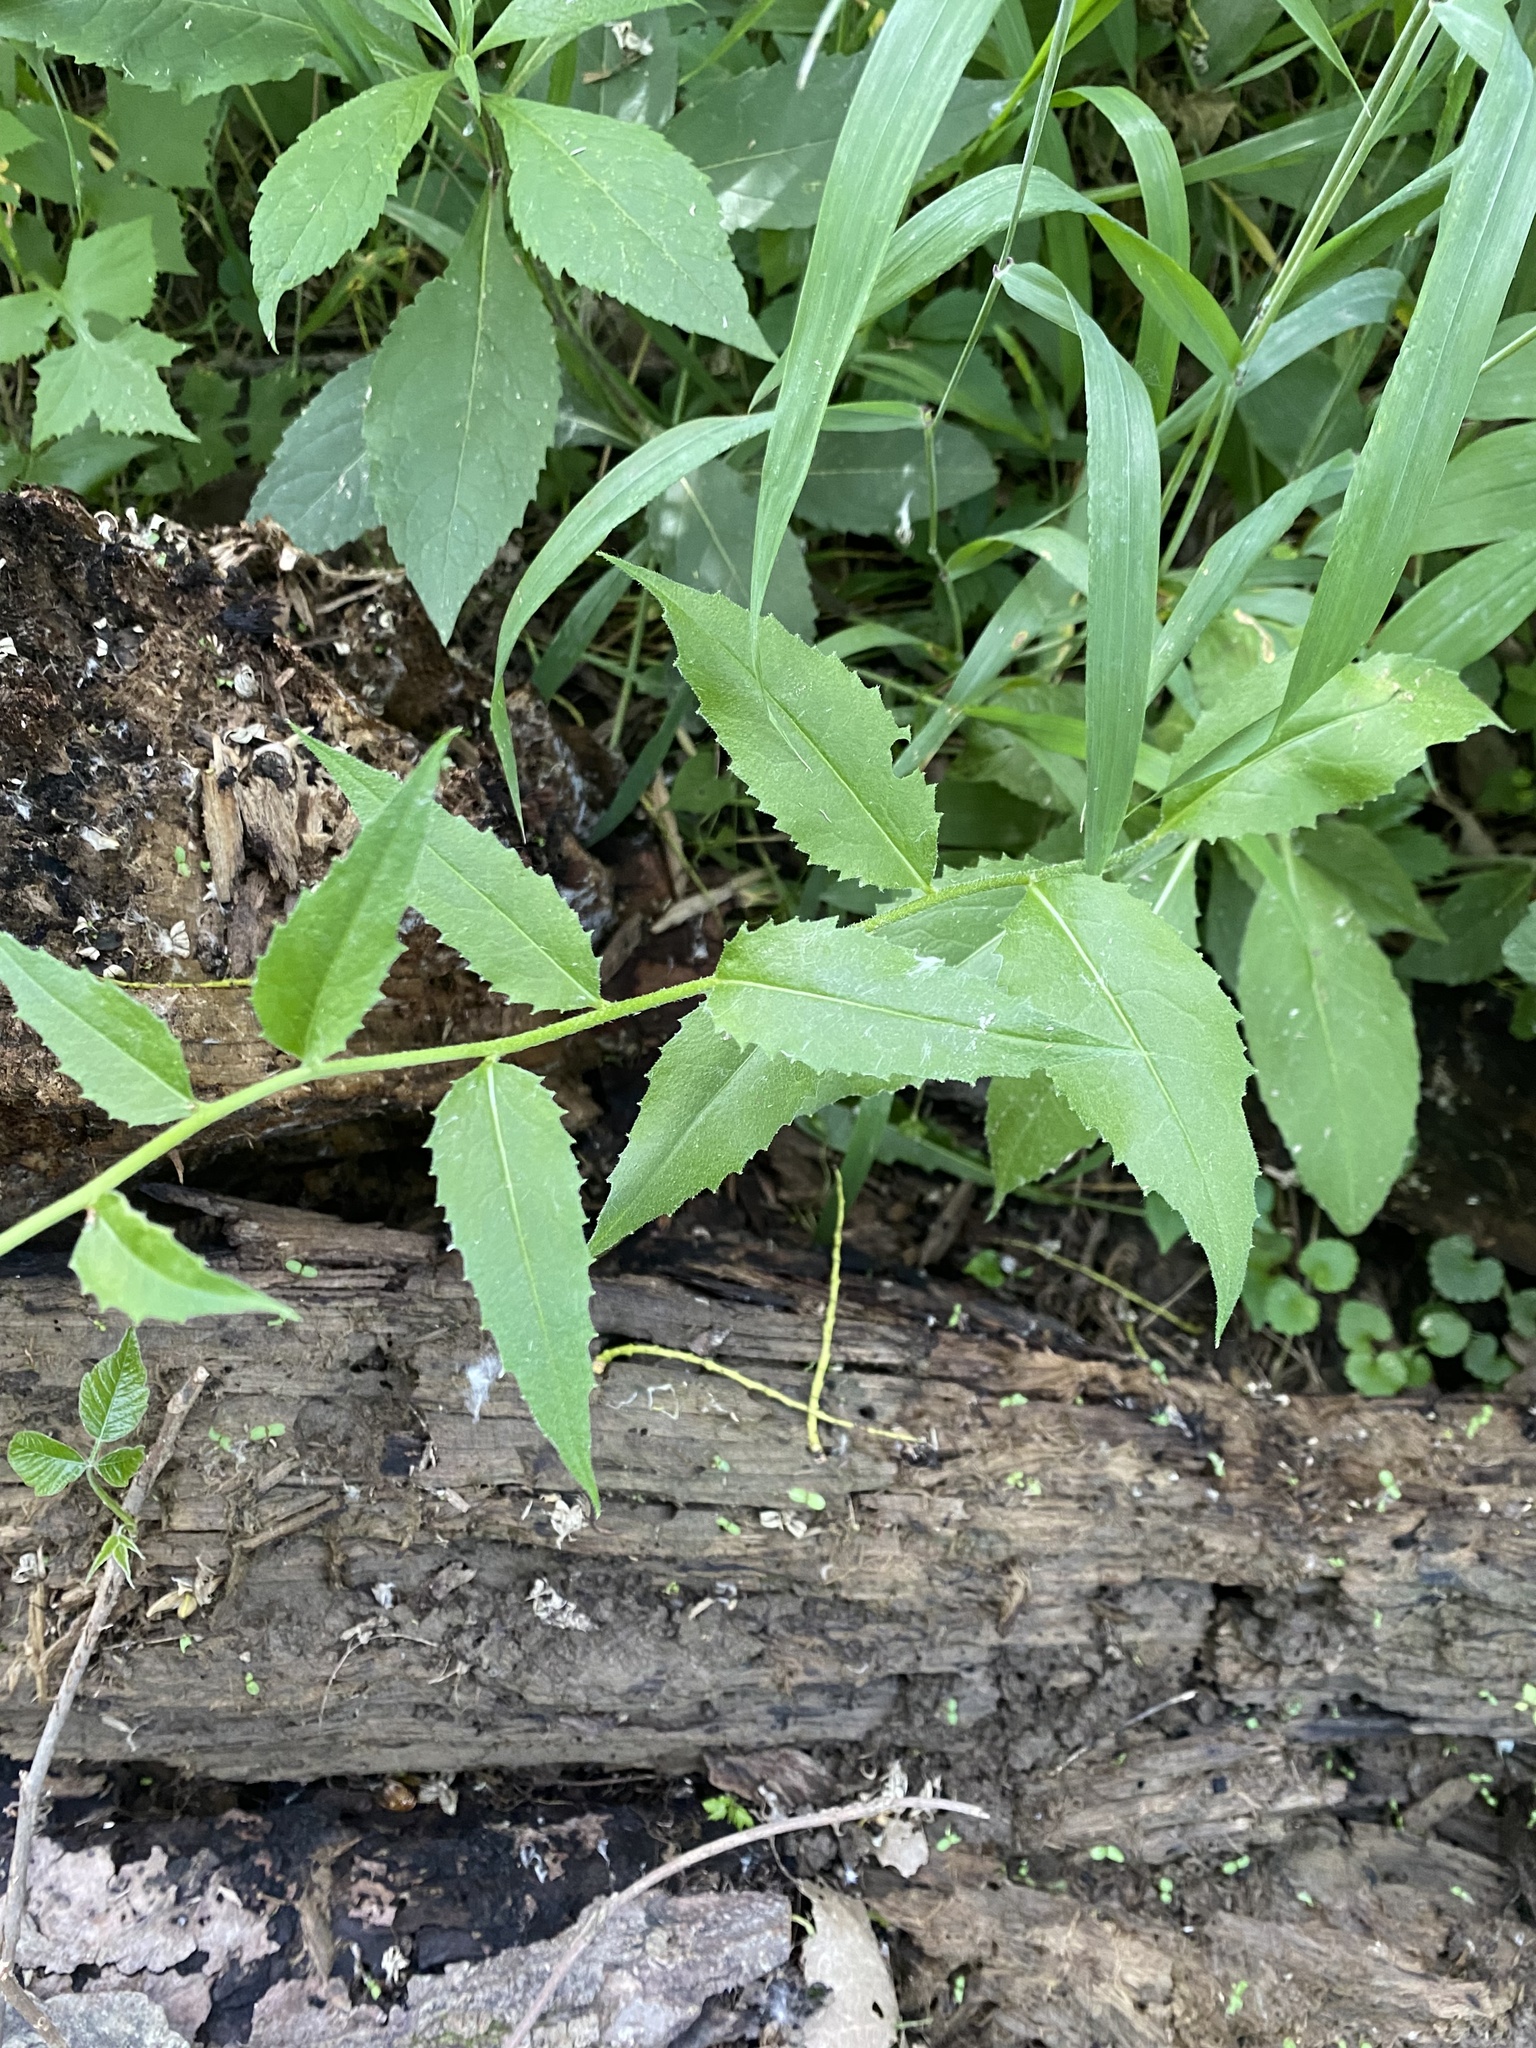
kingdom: Plantae
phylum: Tracheophyta
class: Magnoliopsida
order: Brassicales
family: Brassicaceae
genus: Hesperis
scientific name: Hesperis matronalis
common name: Dame's-violet
